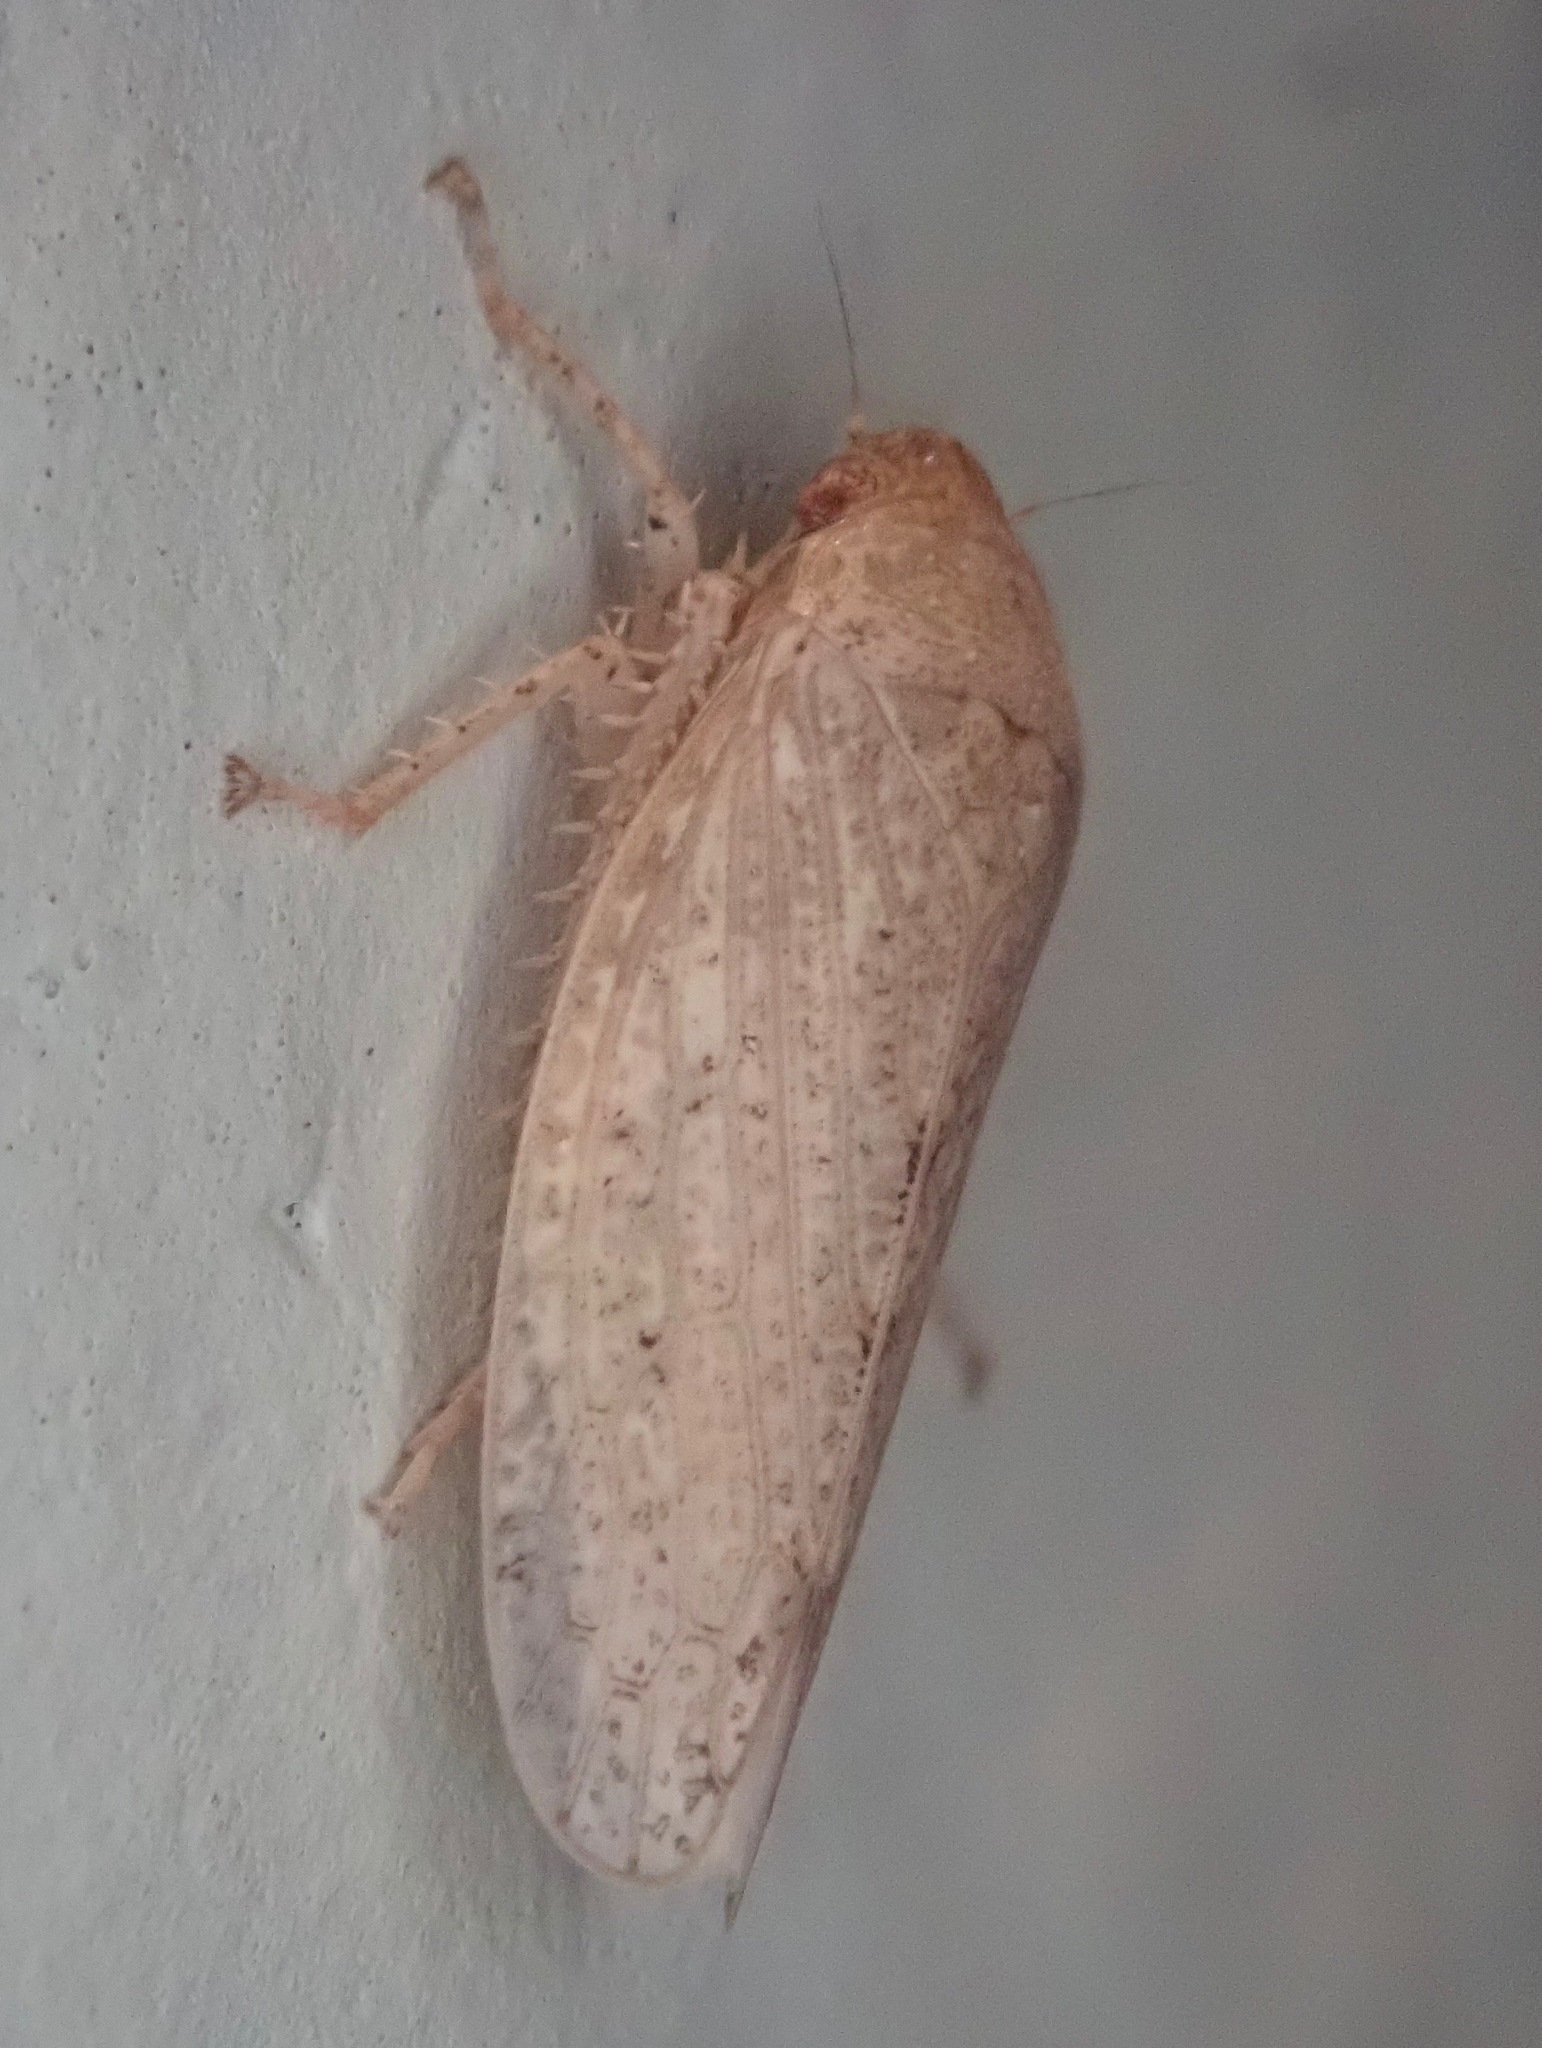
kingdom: Animalia
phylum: Arthropoda
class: Insecta
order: Hemiptera
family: Cicadellidae
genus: Curtara
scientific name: Curtara insularis
